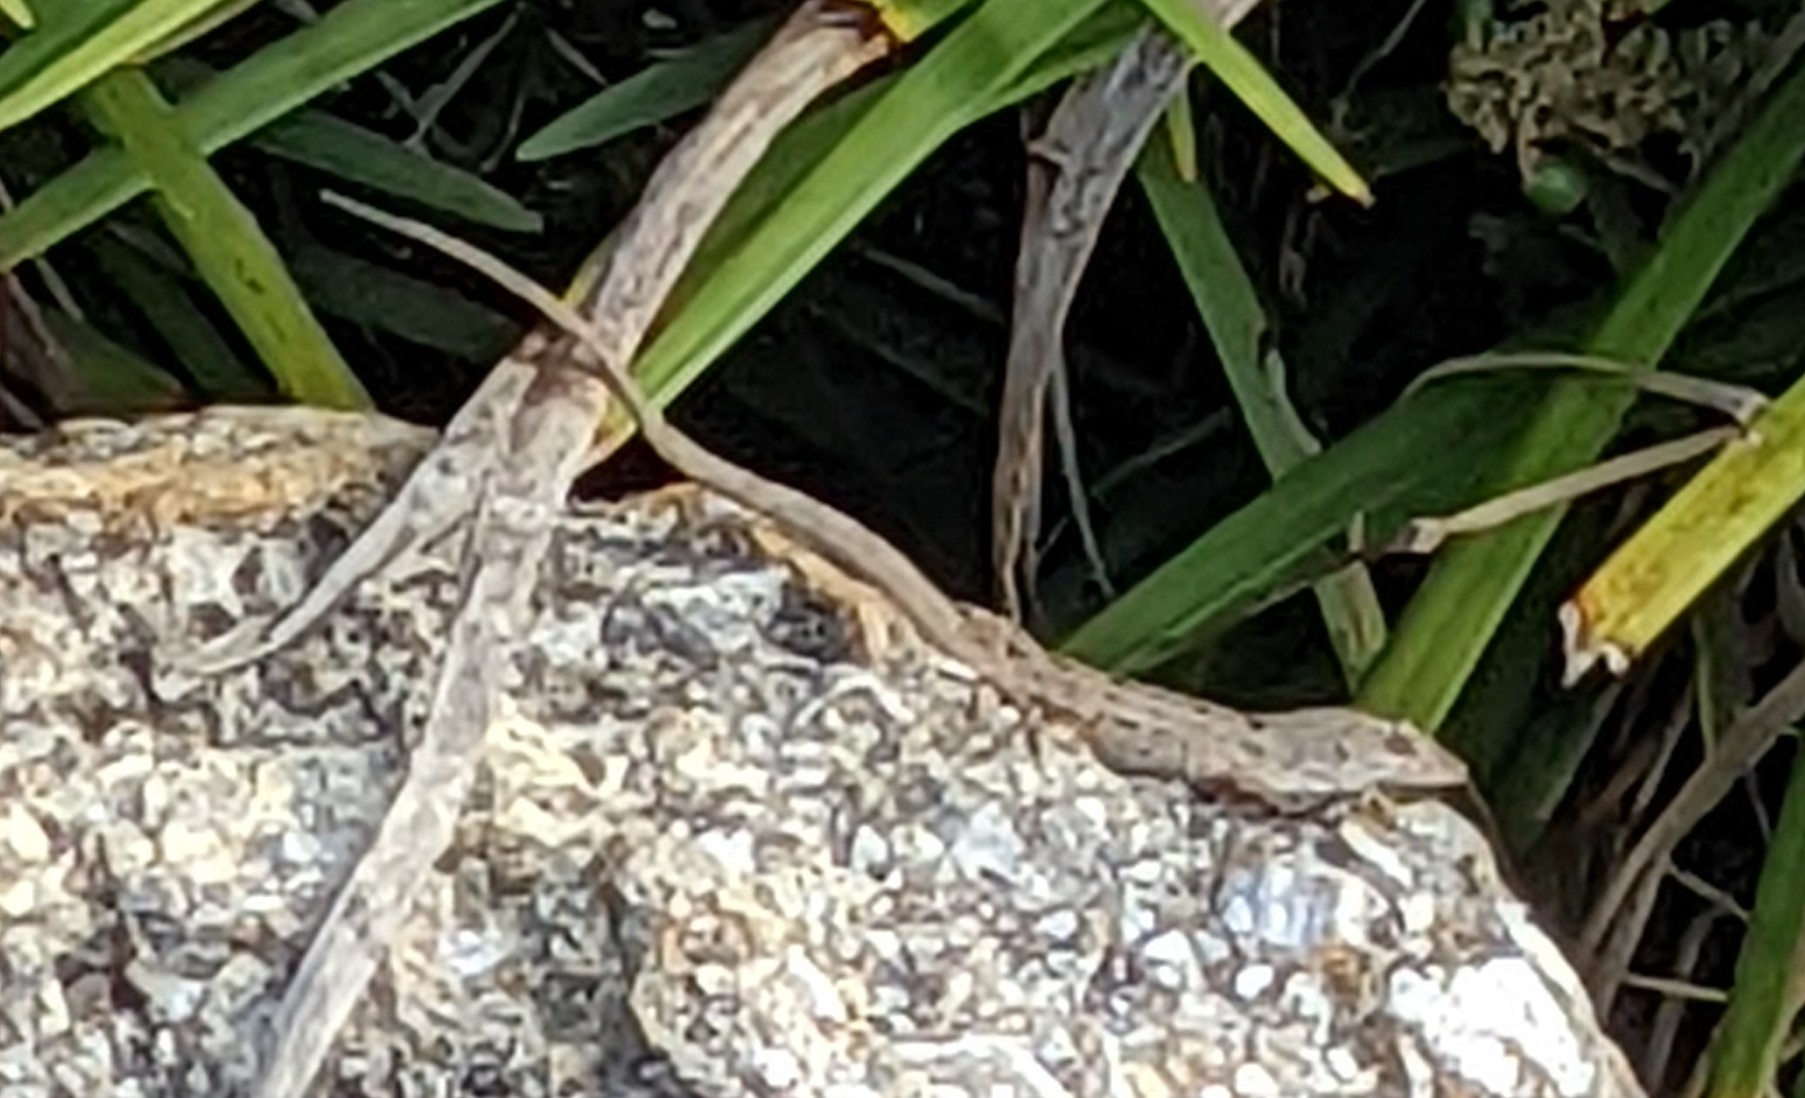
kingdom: Animalia
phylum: Chordata
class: Squamata
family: Dactyloidae
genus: Anolis
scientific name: Anolis sagrei
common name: Brown anole
